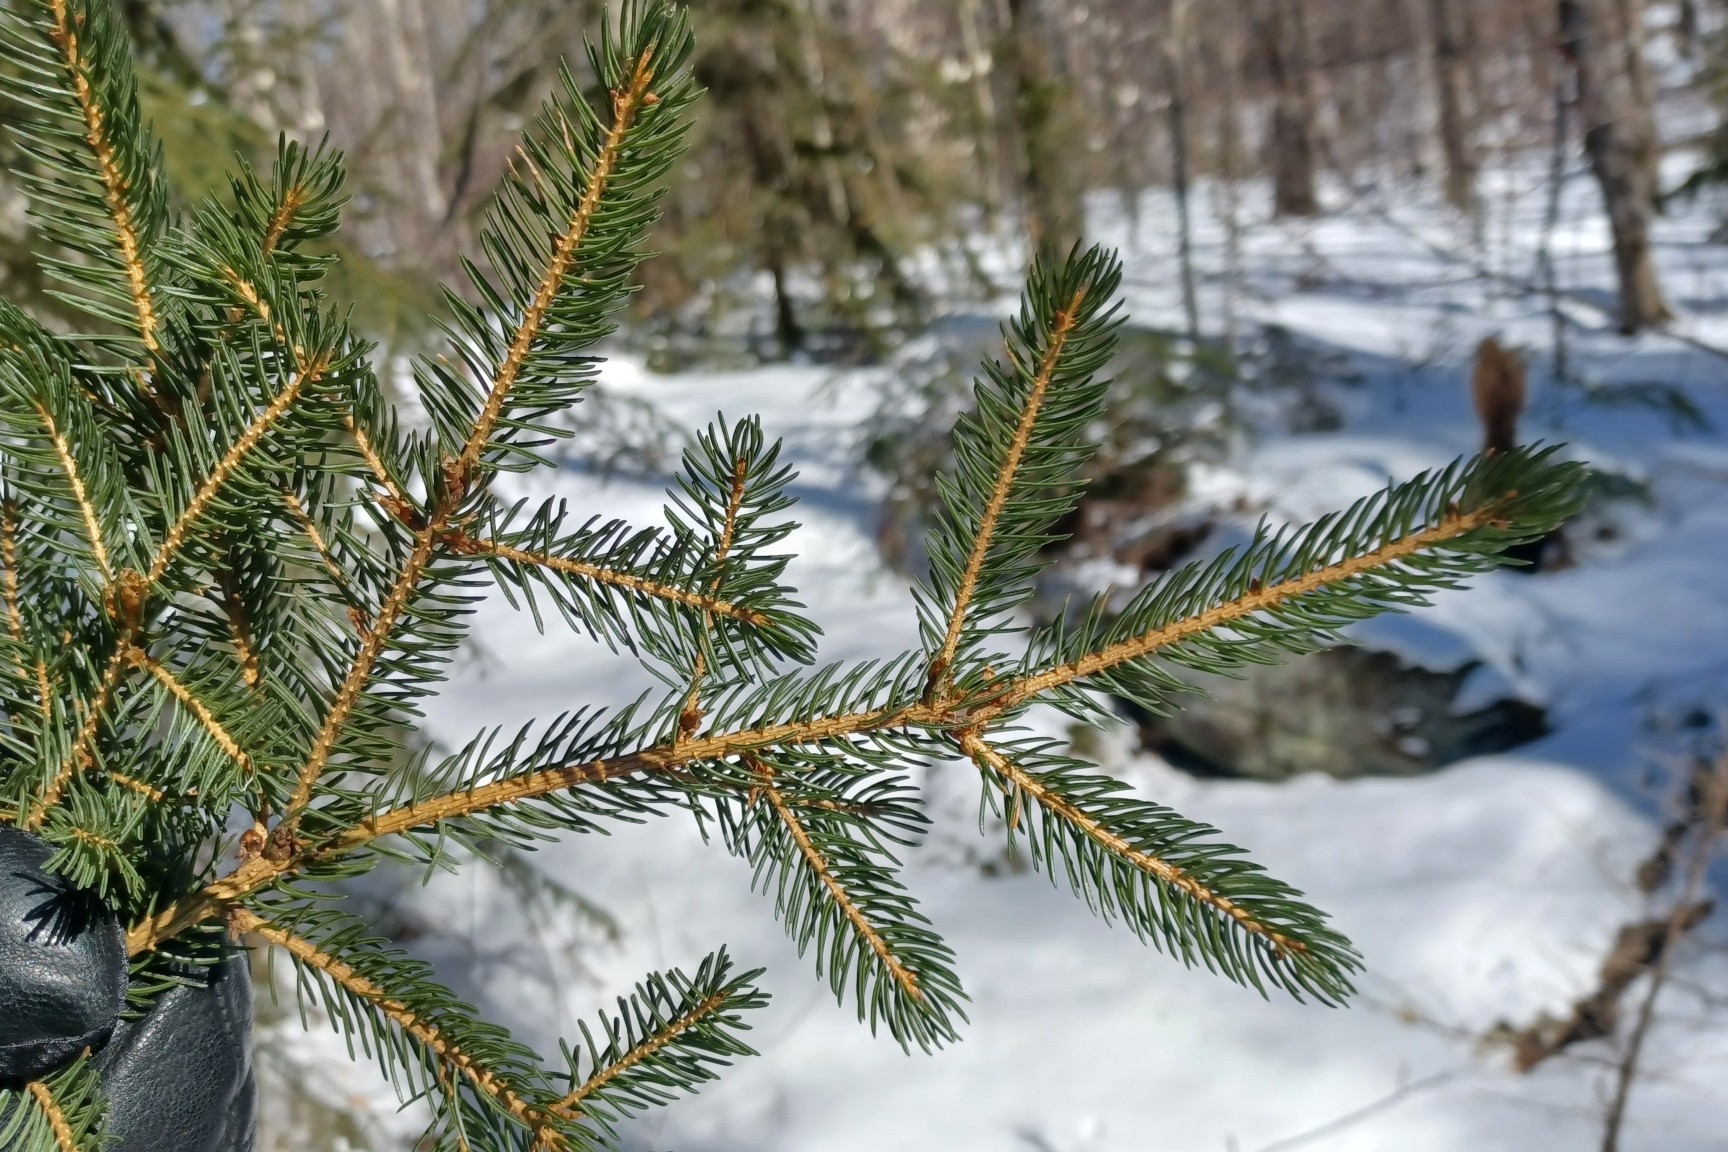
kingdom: Plantae
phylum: Tracheophyta
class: Pinopsida
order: Pinales
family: Pinaceae
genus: Picea
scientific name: Picea rubens
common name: Red spruce
